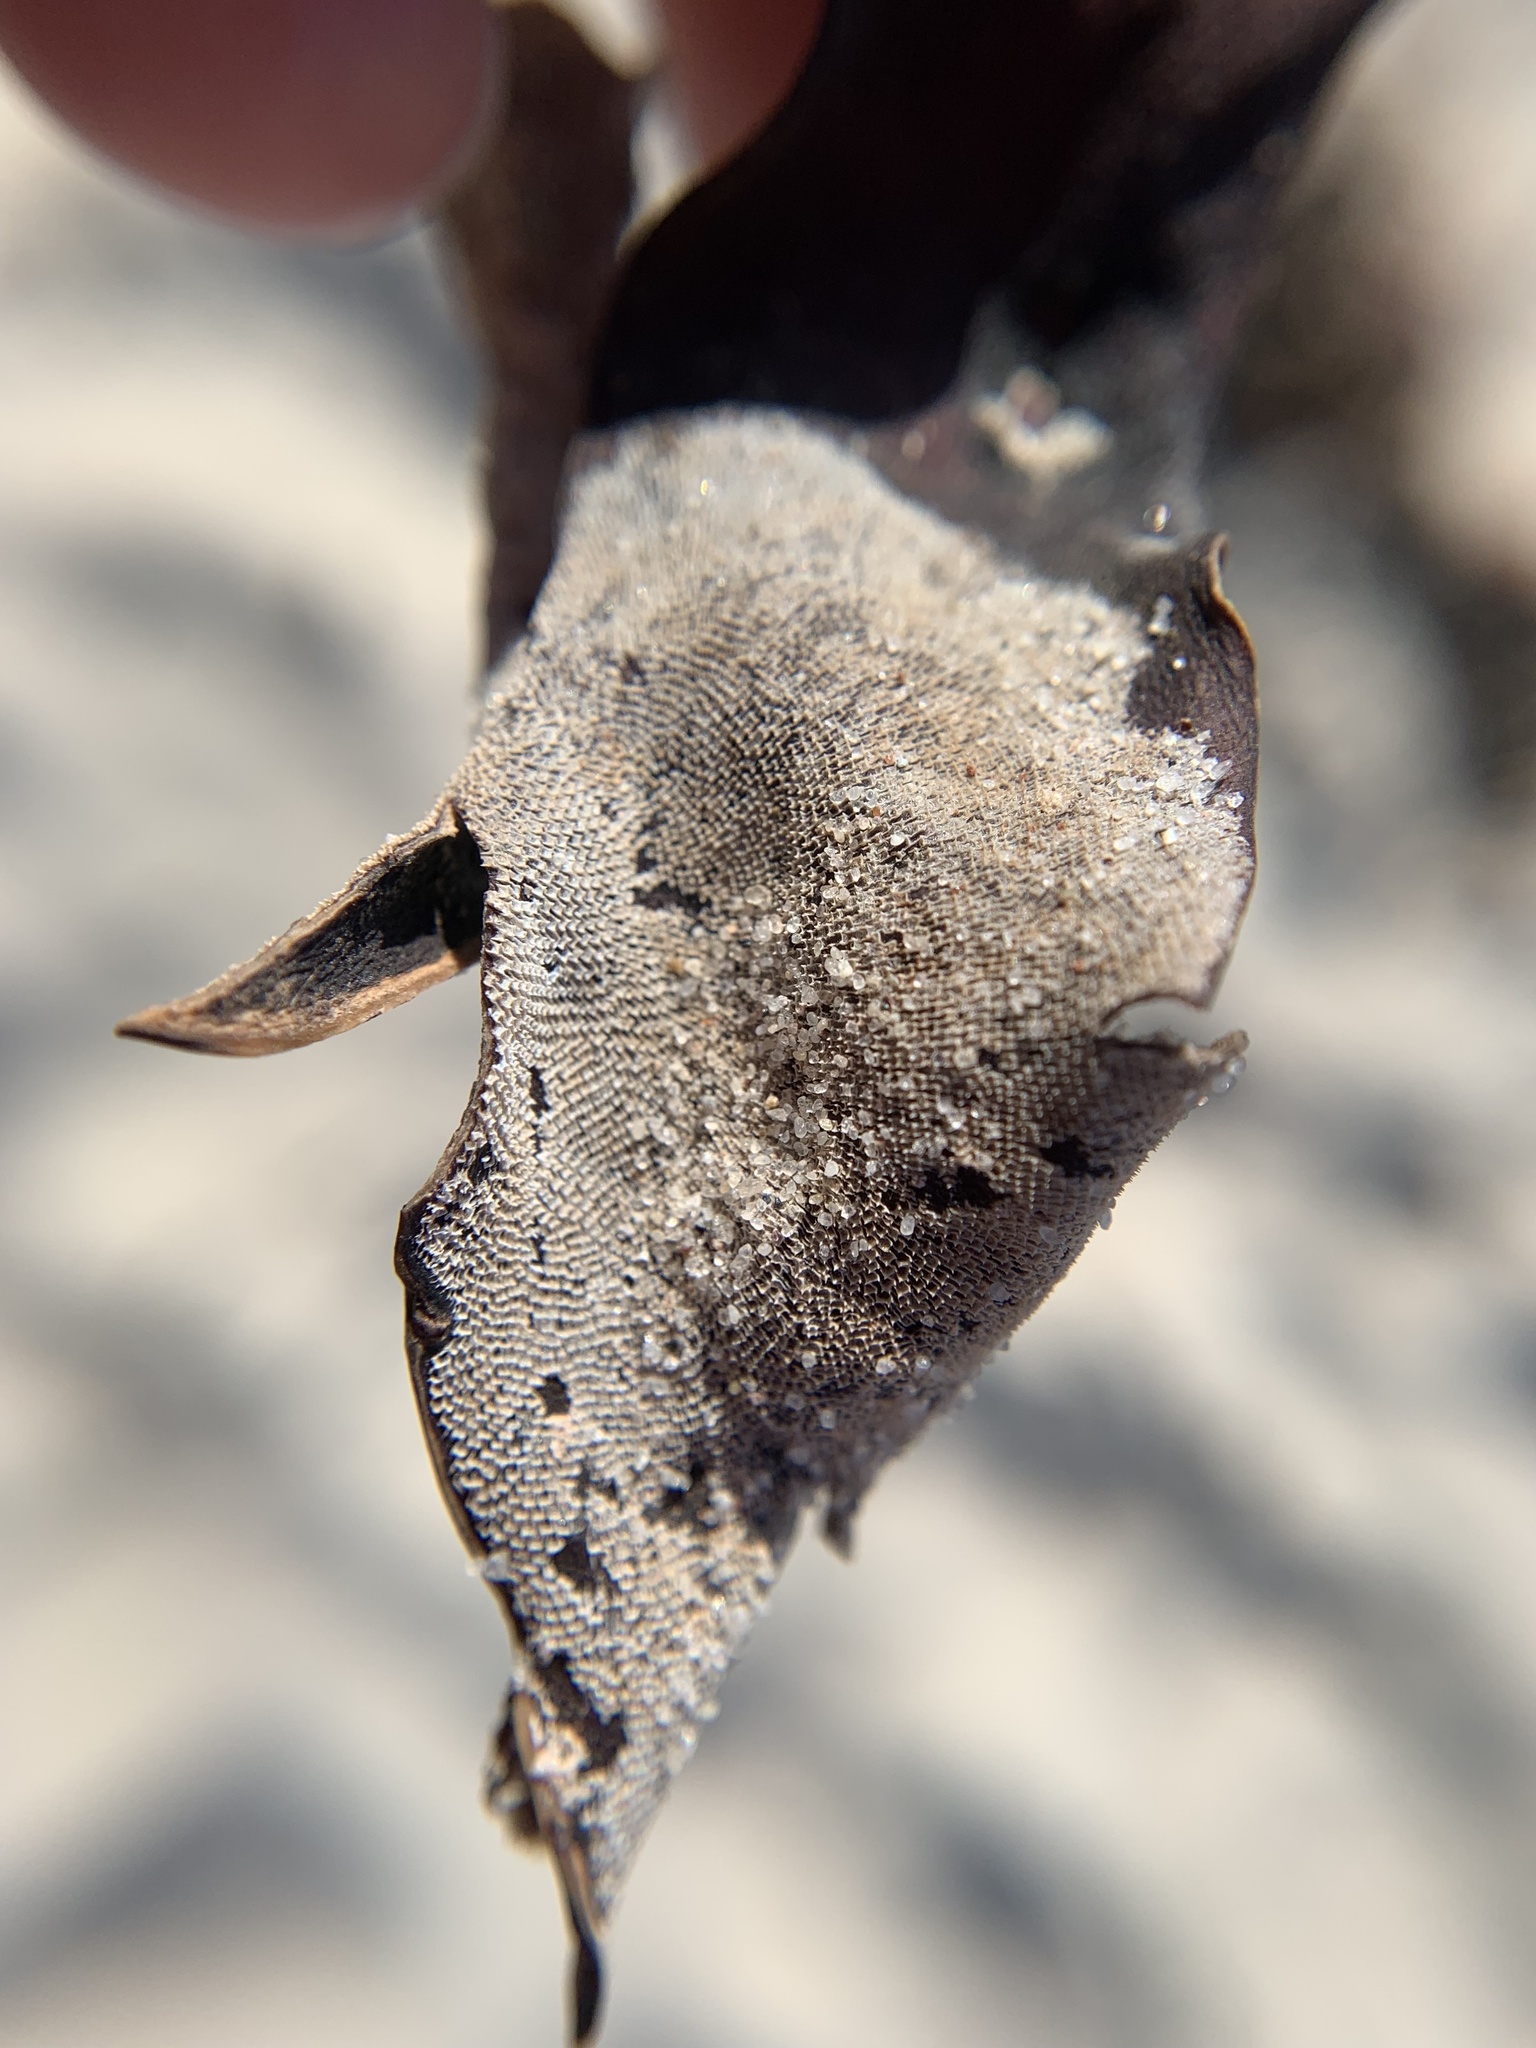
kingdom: Animalia
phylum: Bryozoa
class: Gymnolaemata
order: Cheilostomatida
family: Membraniporidae
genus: Membranipora
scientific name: Membranipora membranacea
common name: Sea mat
